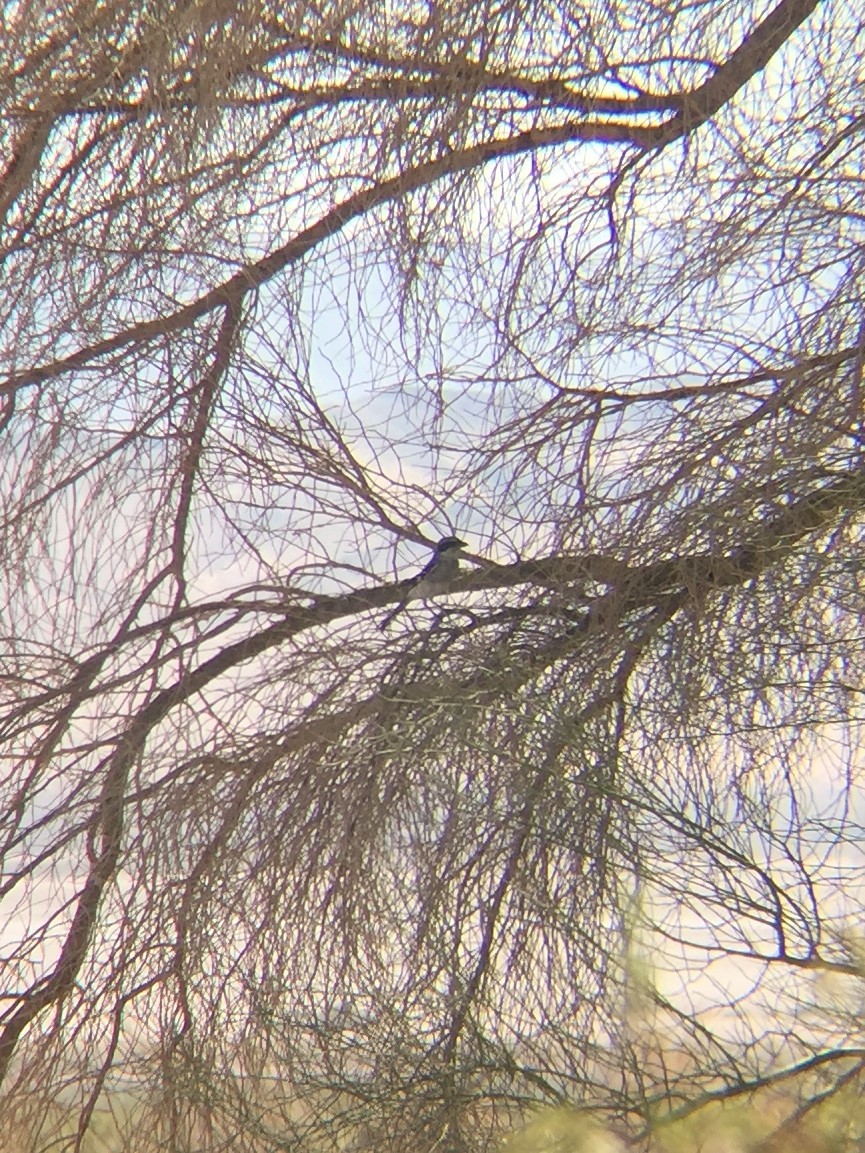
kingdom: Animalia
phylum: Chordata
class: Aves
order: Passeriformes
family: Laniidae
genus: Lanius
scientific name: Lanius ludovicianus
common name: Loggerhead shrike
